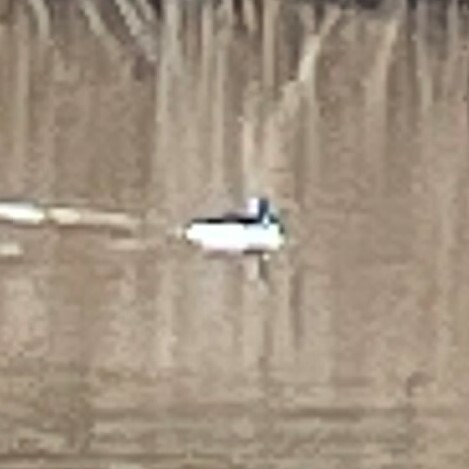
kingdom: Animalia
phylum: Chordata
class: Aves
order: Anseriformes
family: Anatidae
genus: Bucephala
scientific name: Bucephala albeola
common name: Bufflehead
